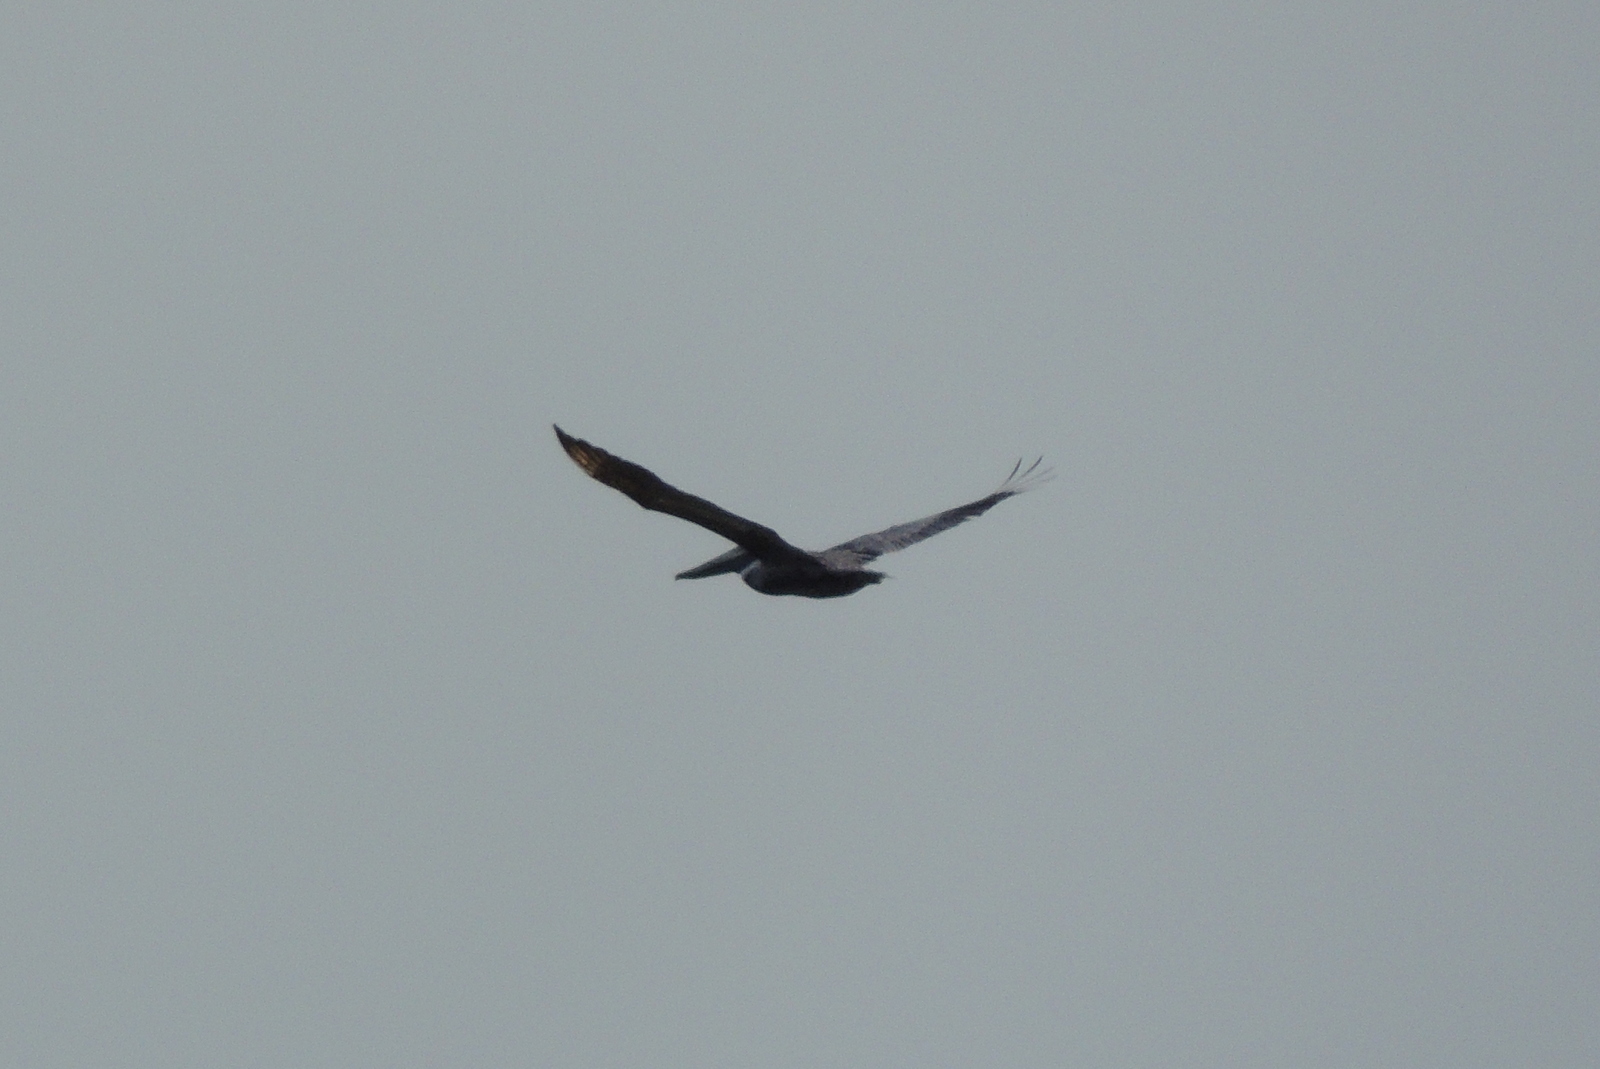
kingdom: Animalia
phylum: Chordata
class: Aves
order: Pelecaniformes
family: Pelecanidae
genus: Pelecanus
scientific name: Pelecanus occidentalis
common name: Brown pelican
